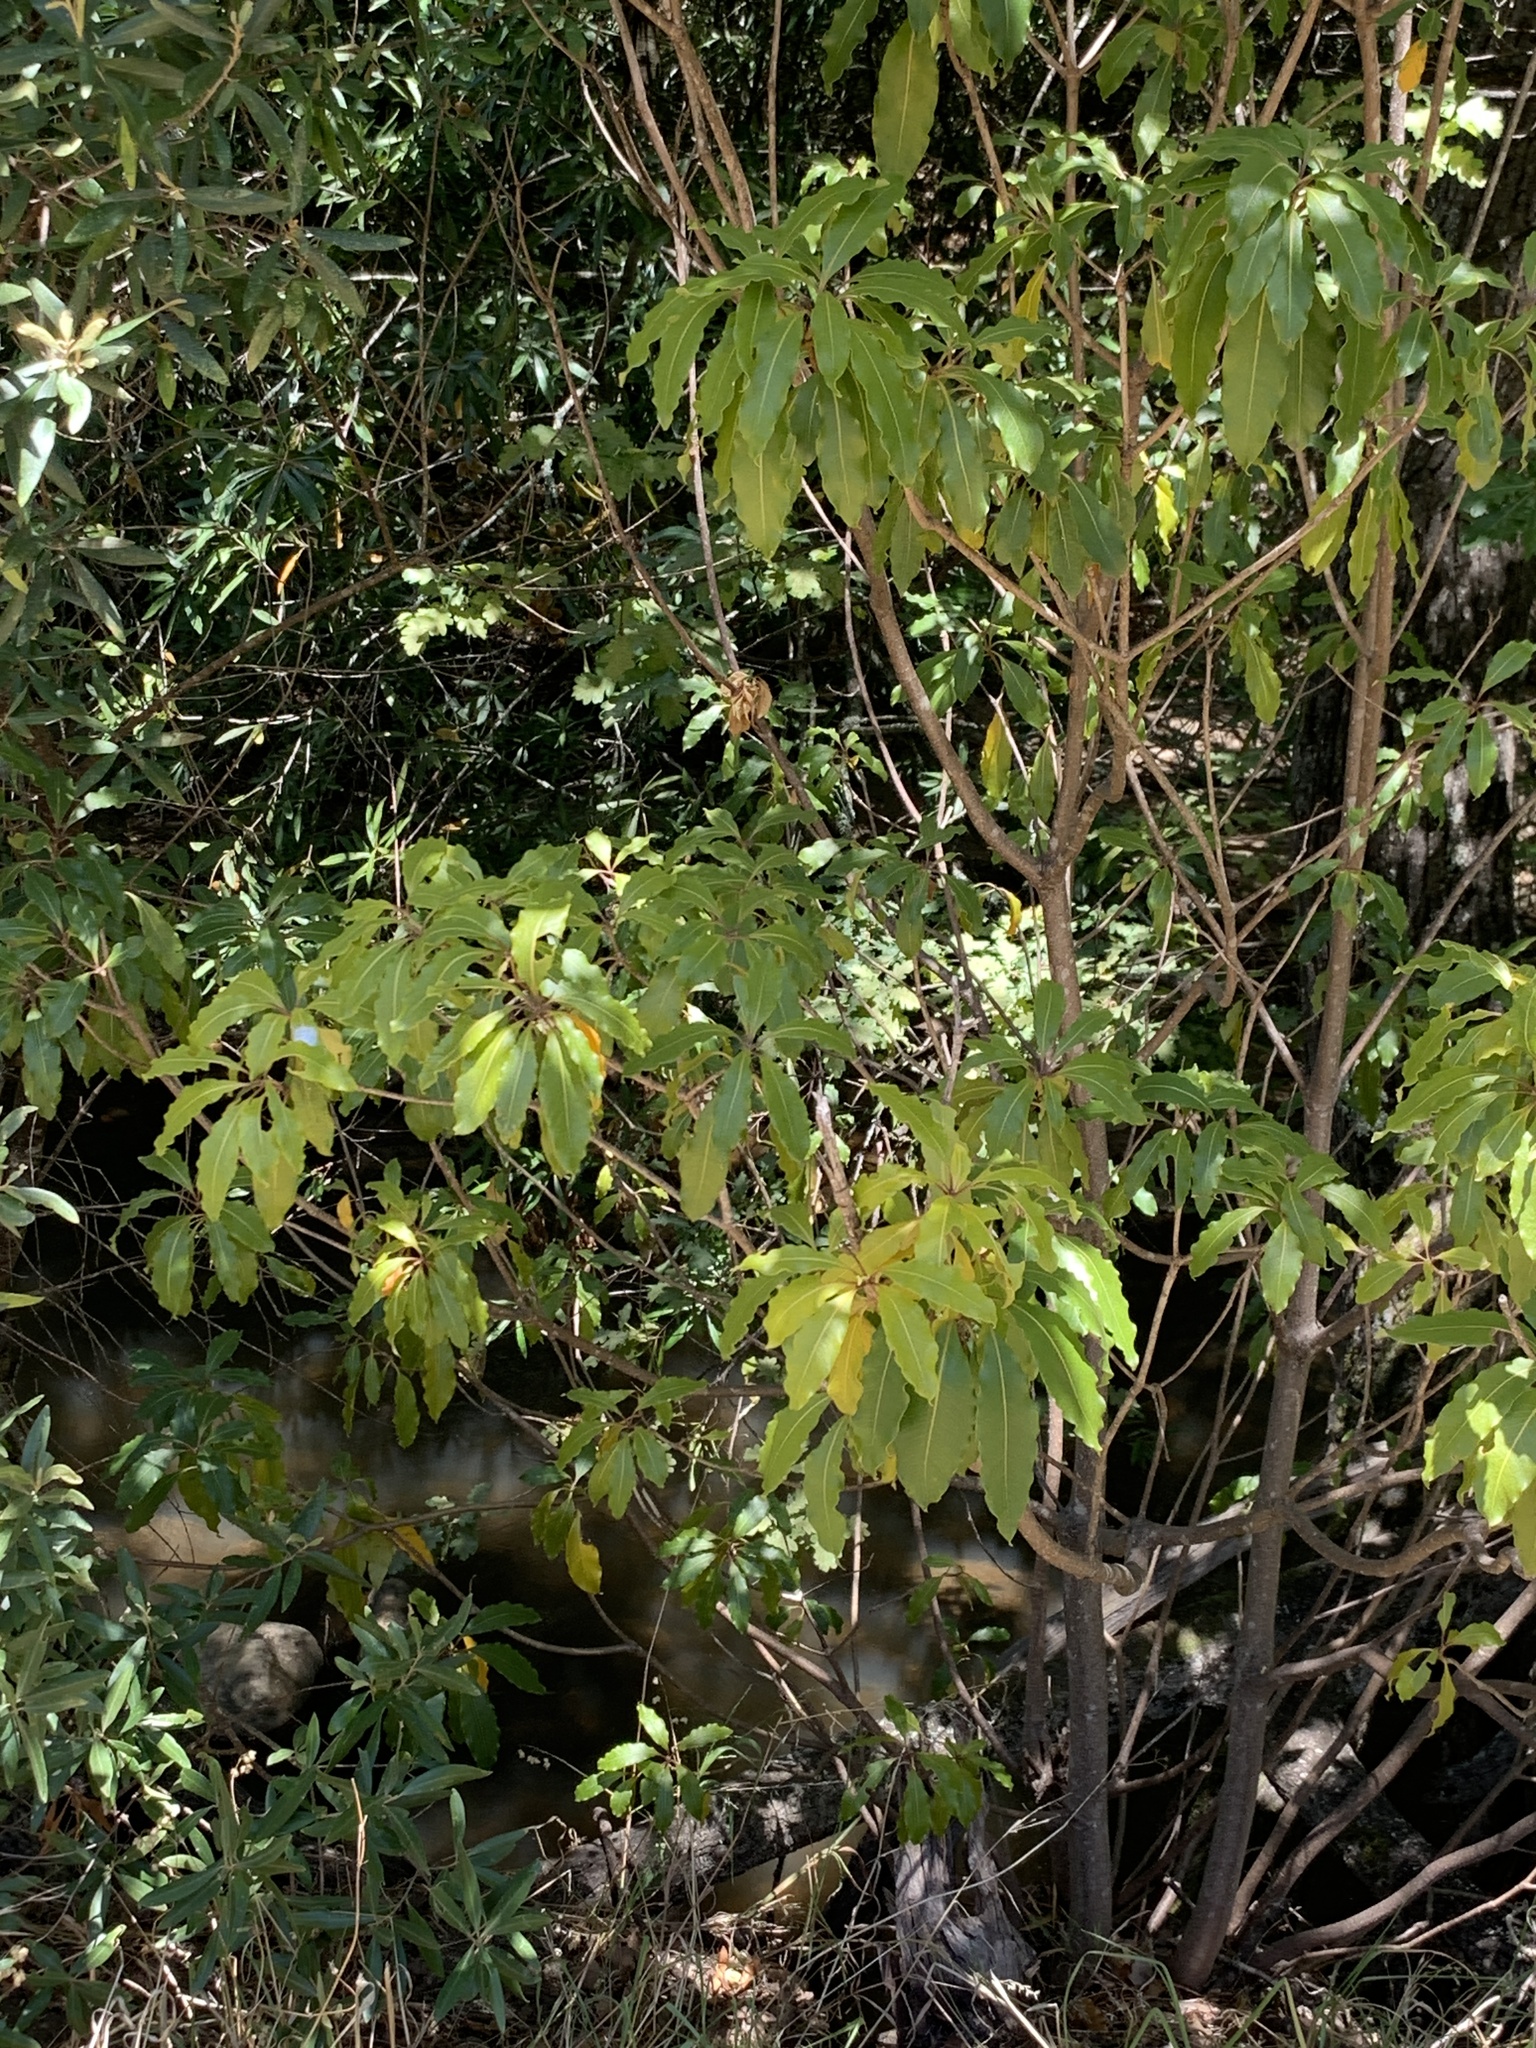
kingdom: Plantae
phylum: Tracheophyta
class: Magnoliopsida
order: Apiales
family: Pittosporaceae
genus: Pittosporum
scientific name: Pittosporum undulatum
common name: Australian cheesewood
